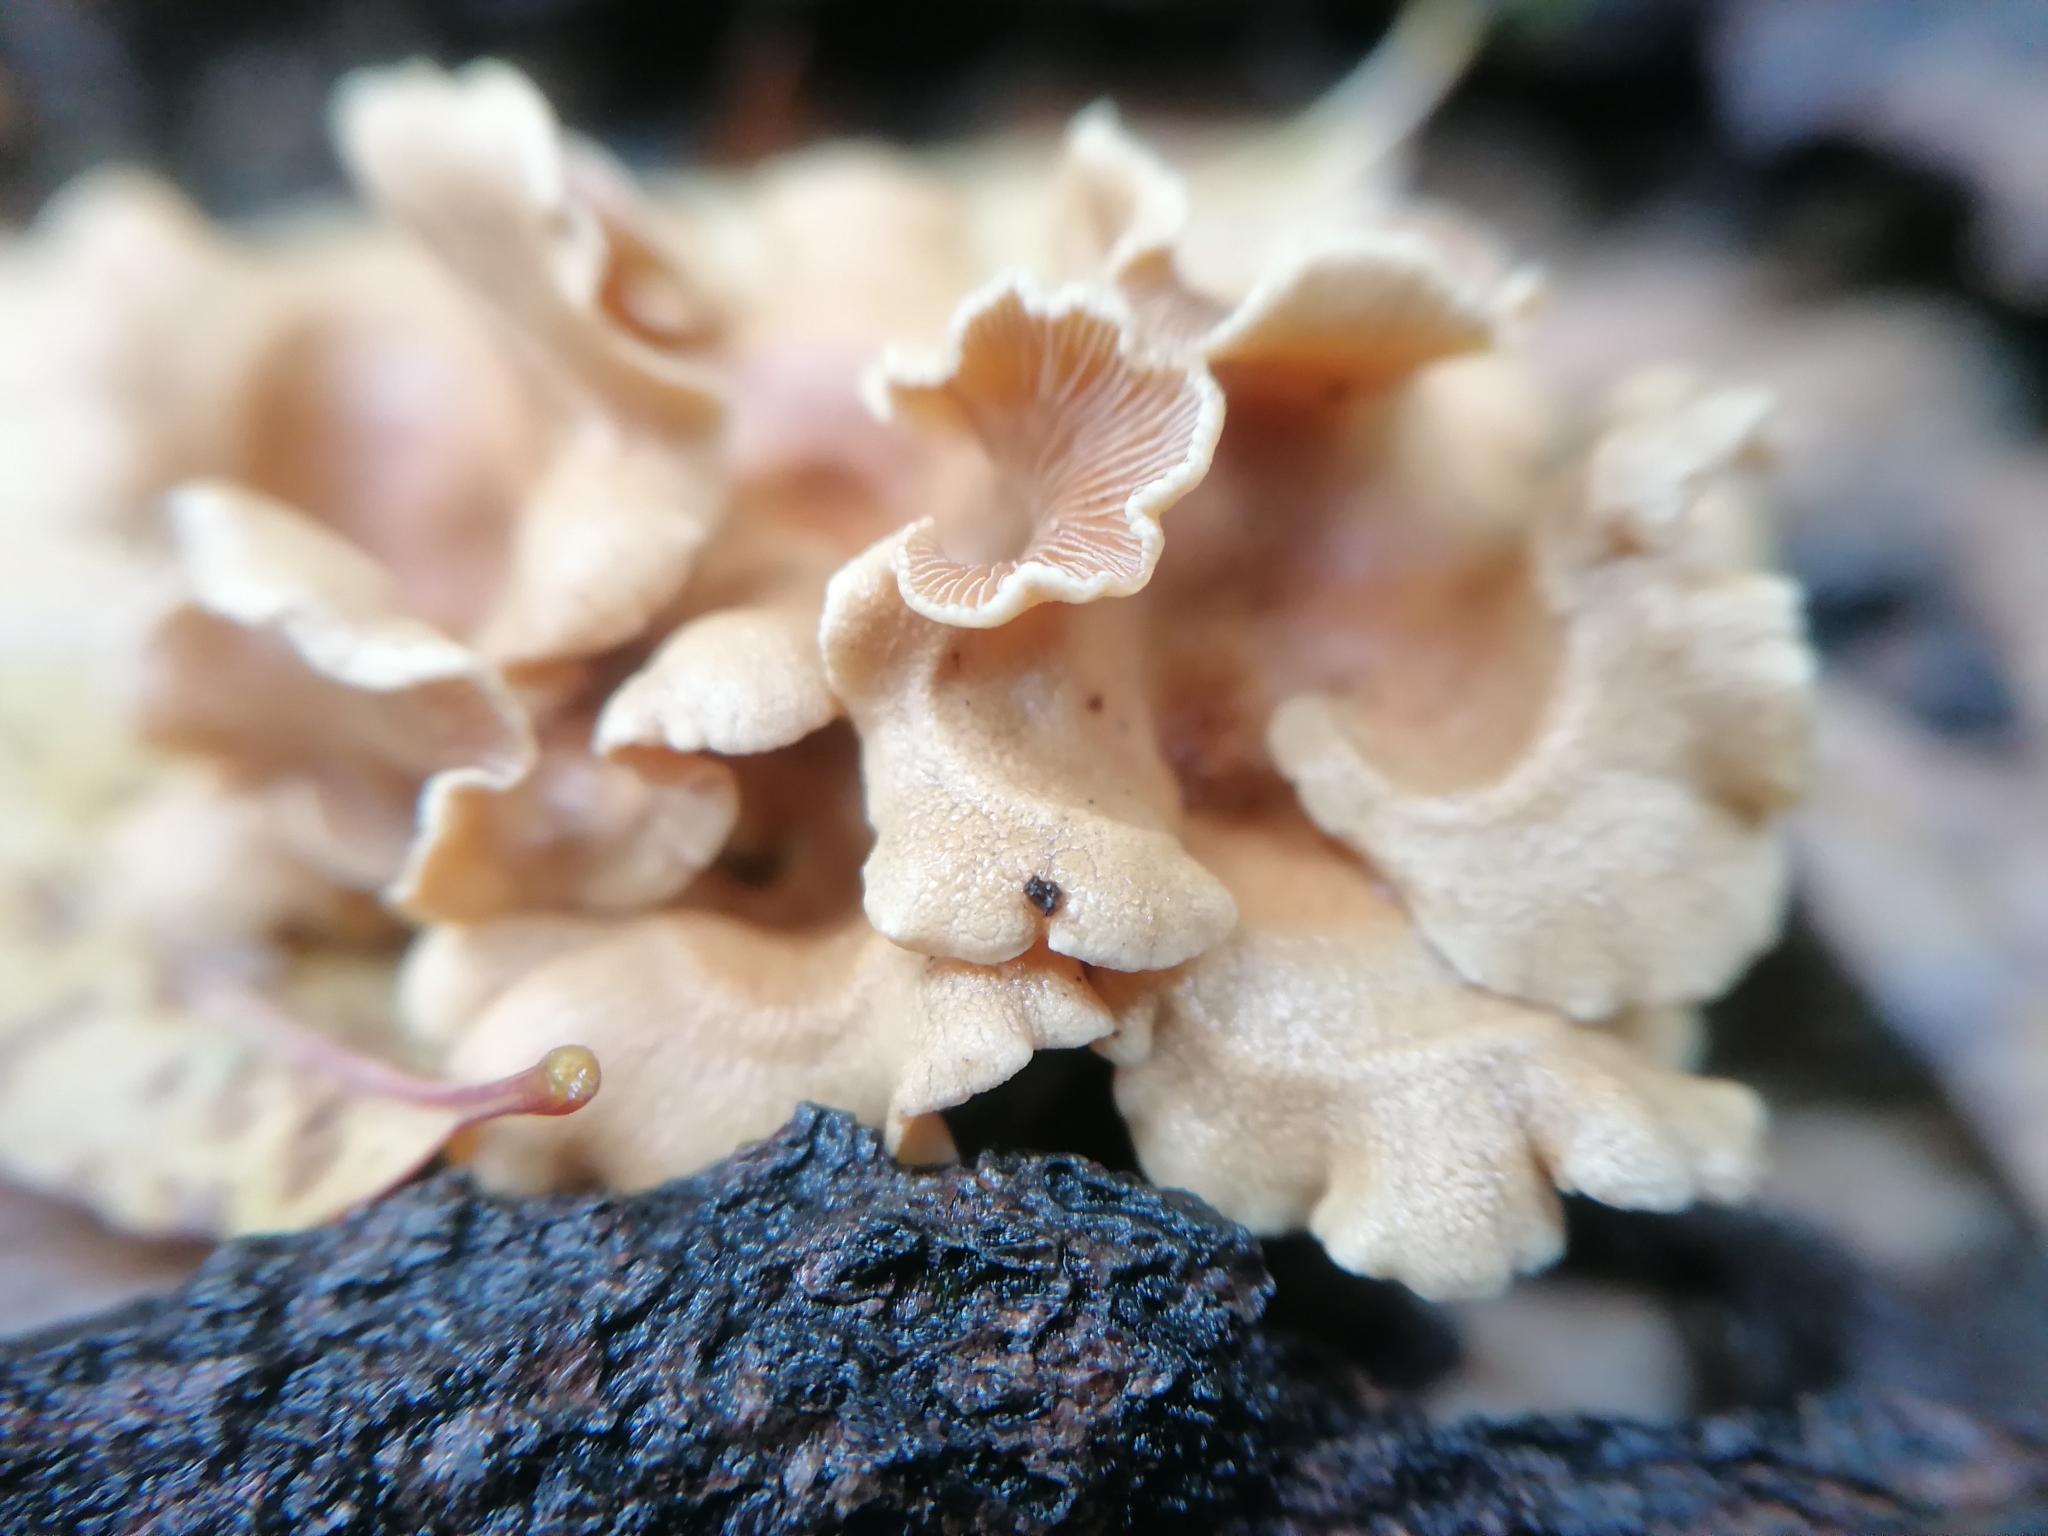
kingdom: Fungi
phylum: Basidiomycota
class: Agaricomycetes
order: Agaricales
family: Mycenaceae
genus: Panellus
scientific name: Panellus stipticus
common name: Bitter oysterling
